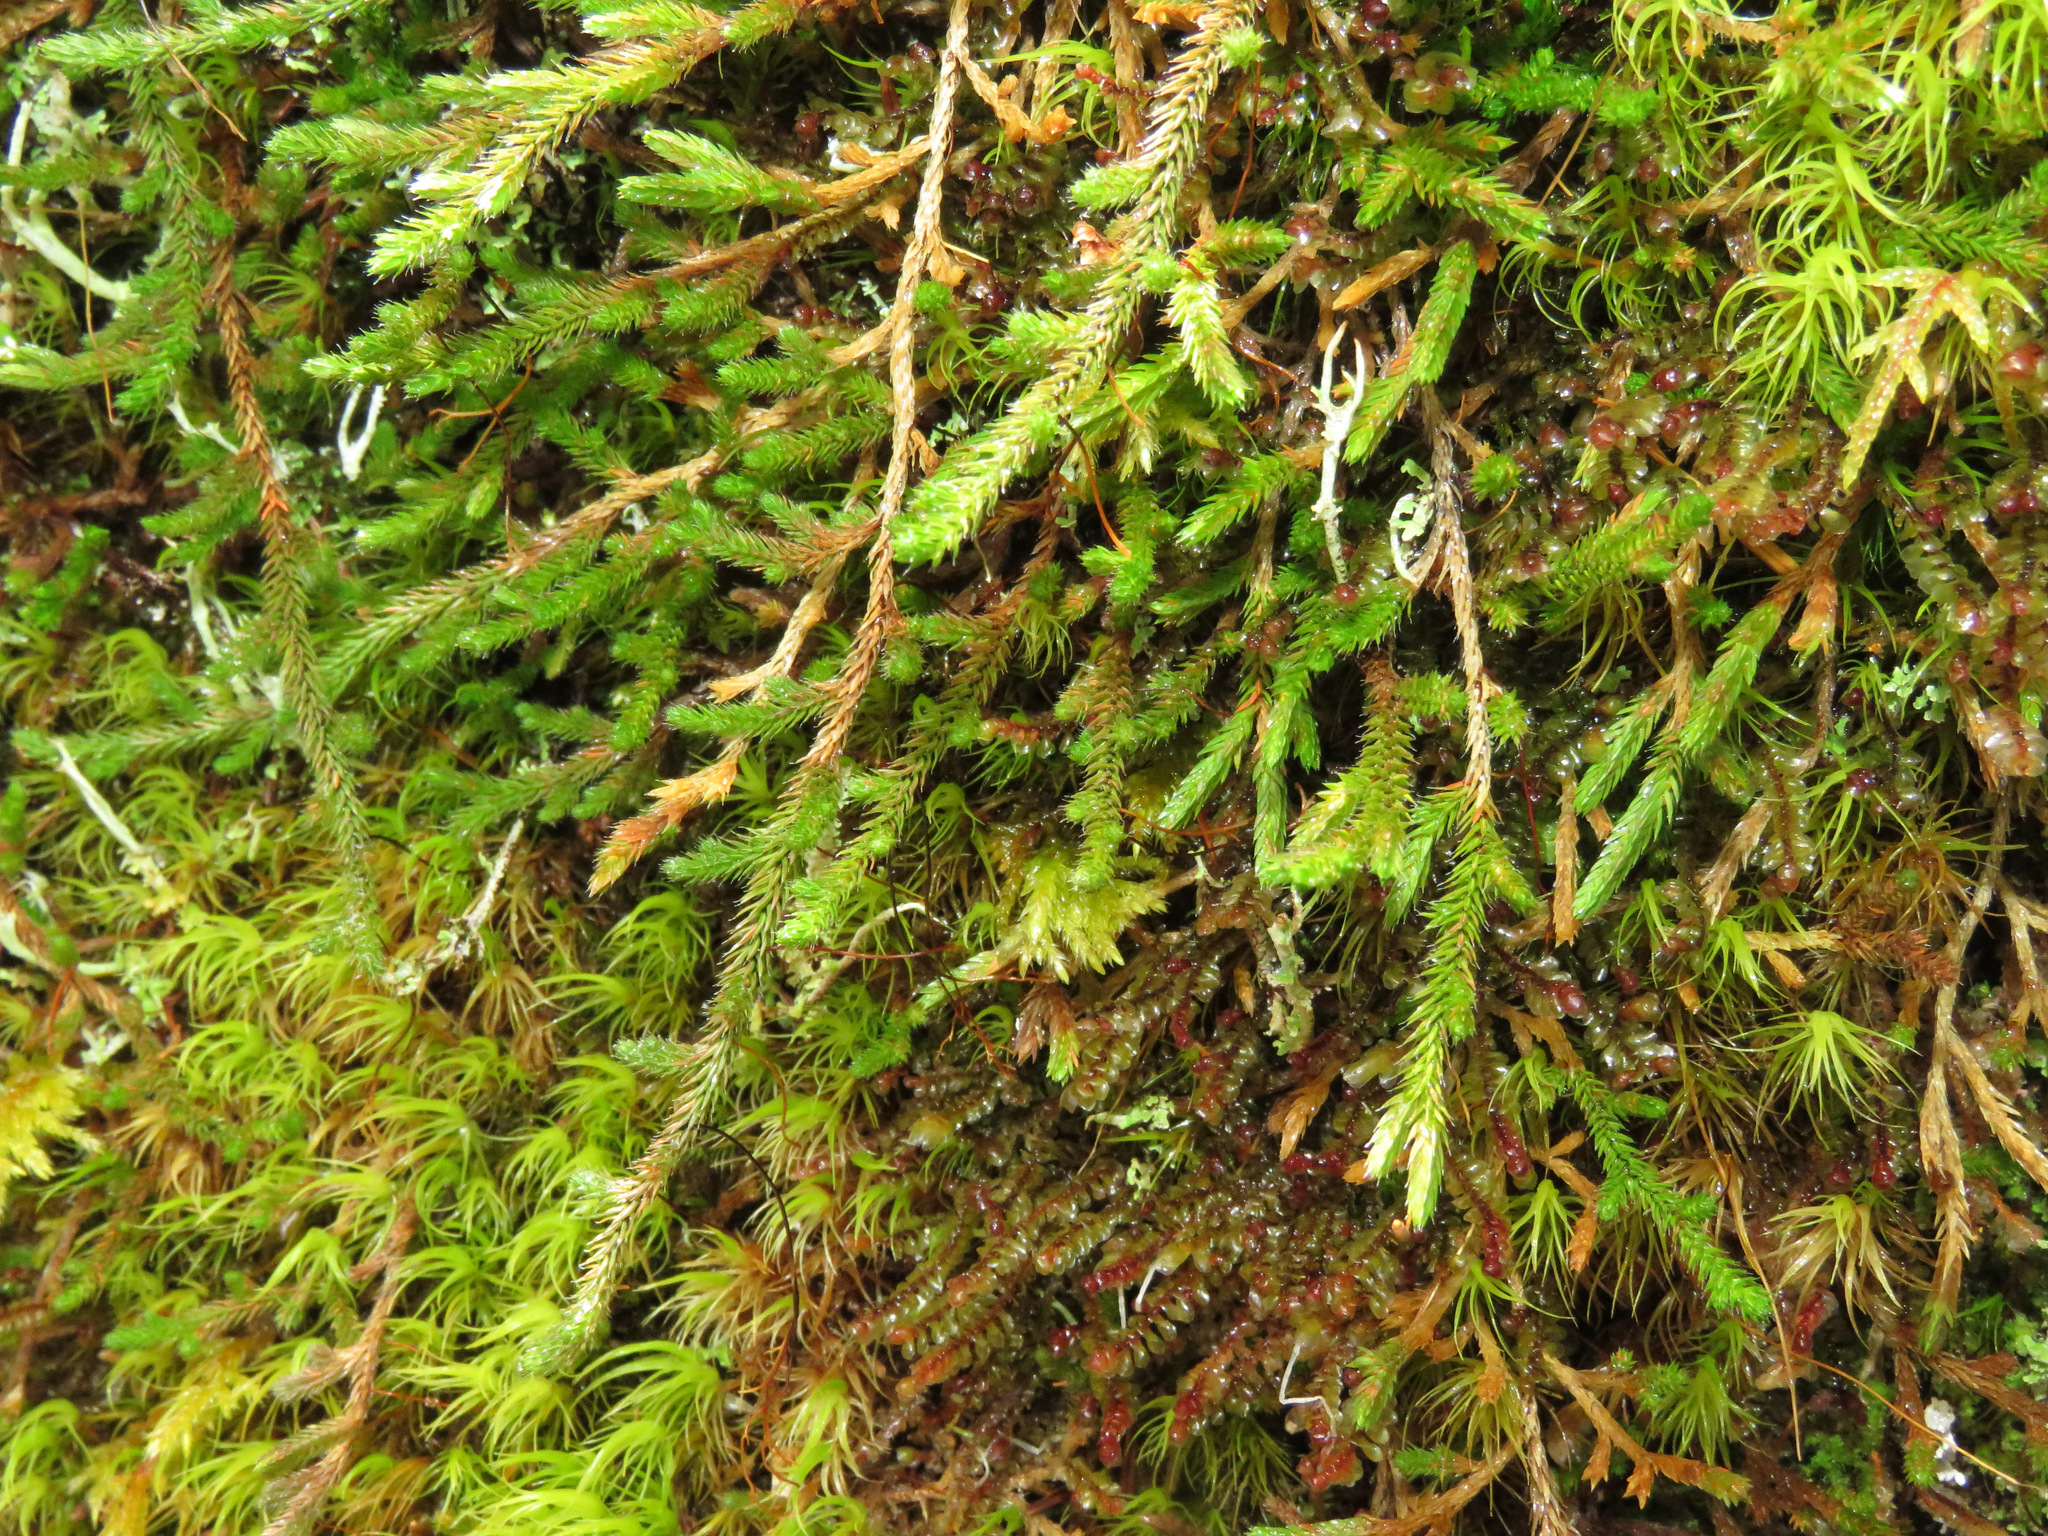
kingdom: Plantae
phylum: Tracheophyta
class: Lycopodiopsida
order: Selaginellales
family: Selaginellaceae
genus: Selaginella
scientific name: Selaginella wallacei
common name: Wallace's selaginella
